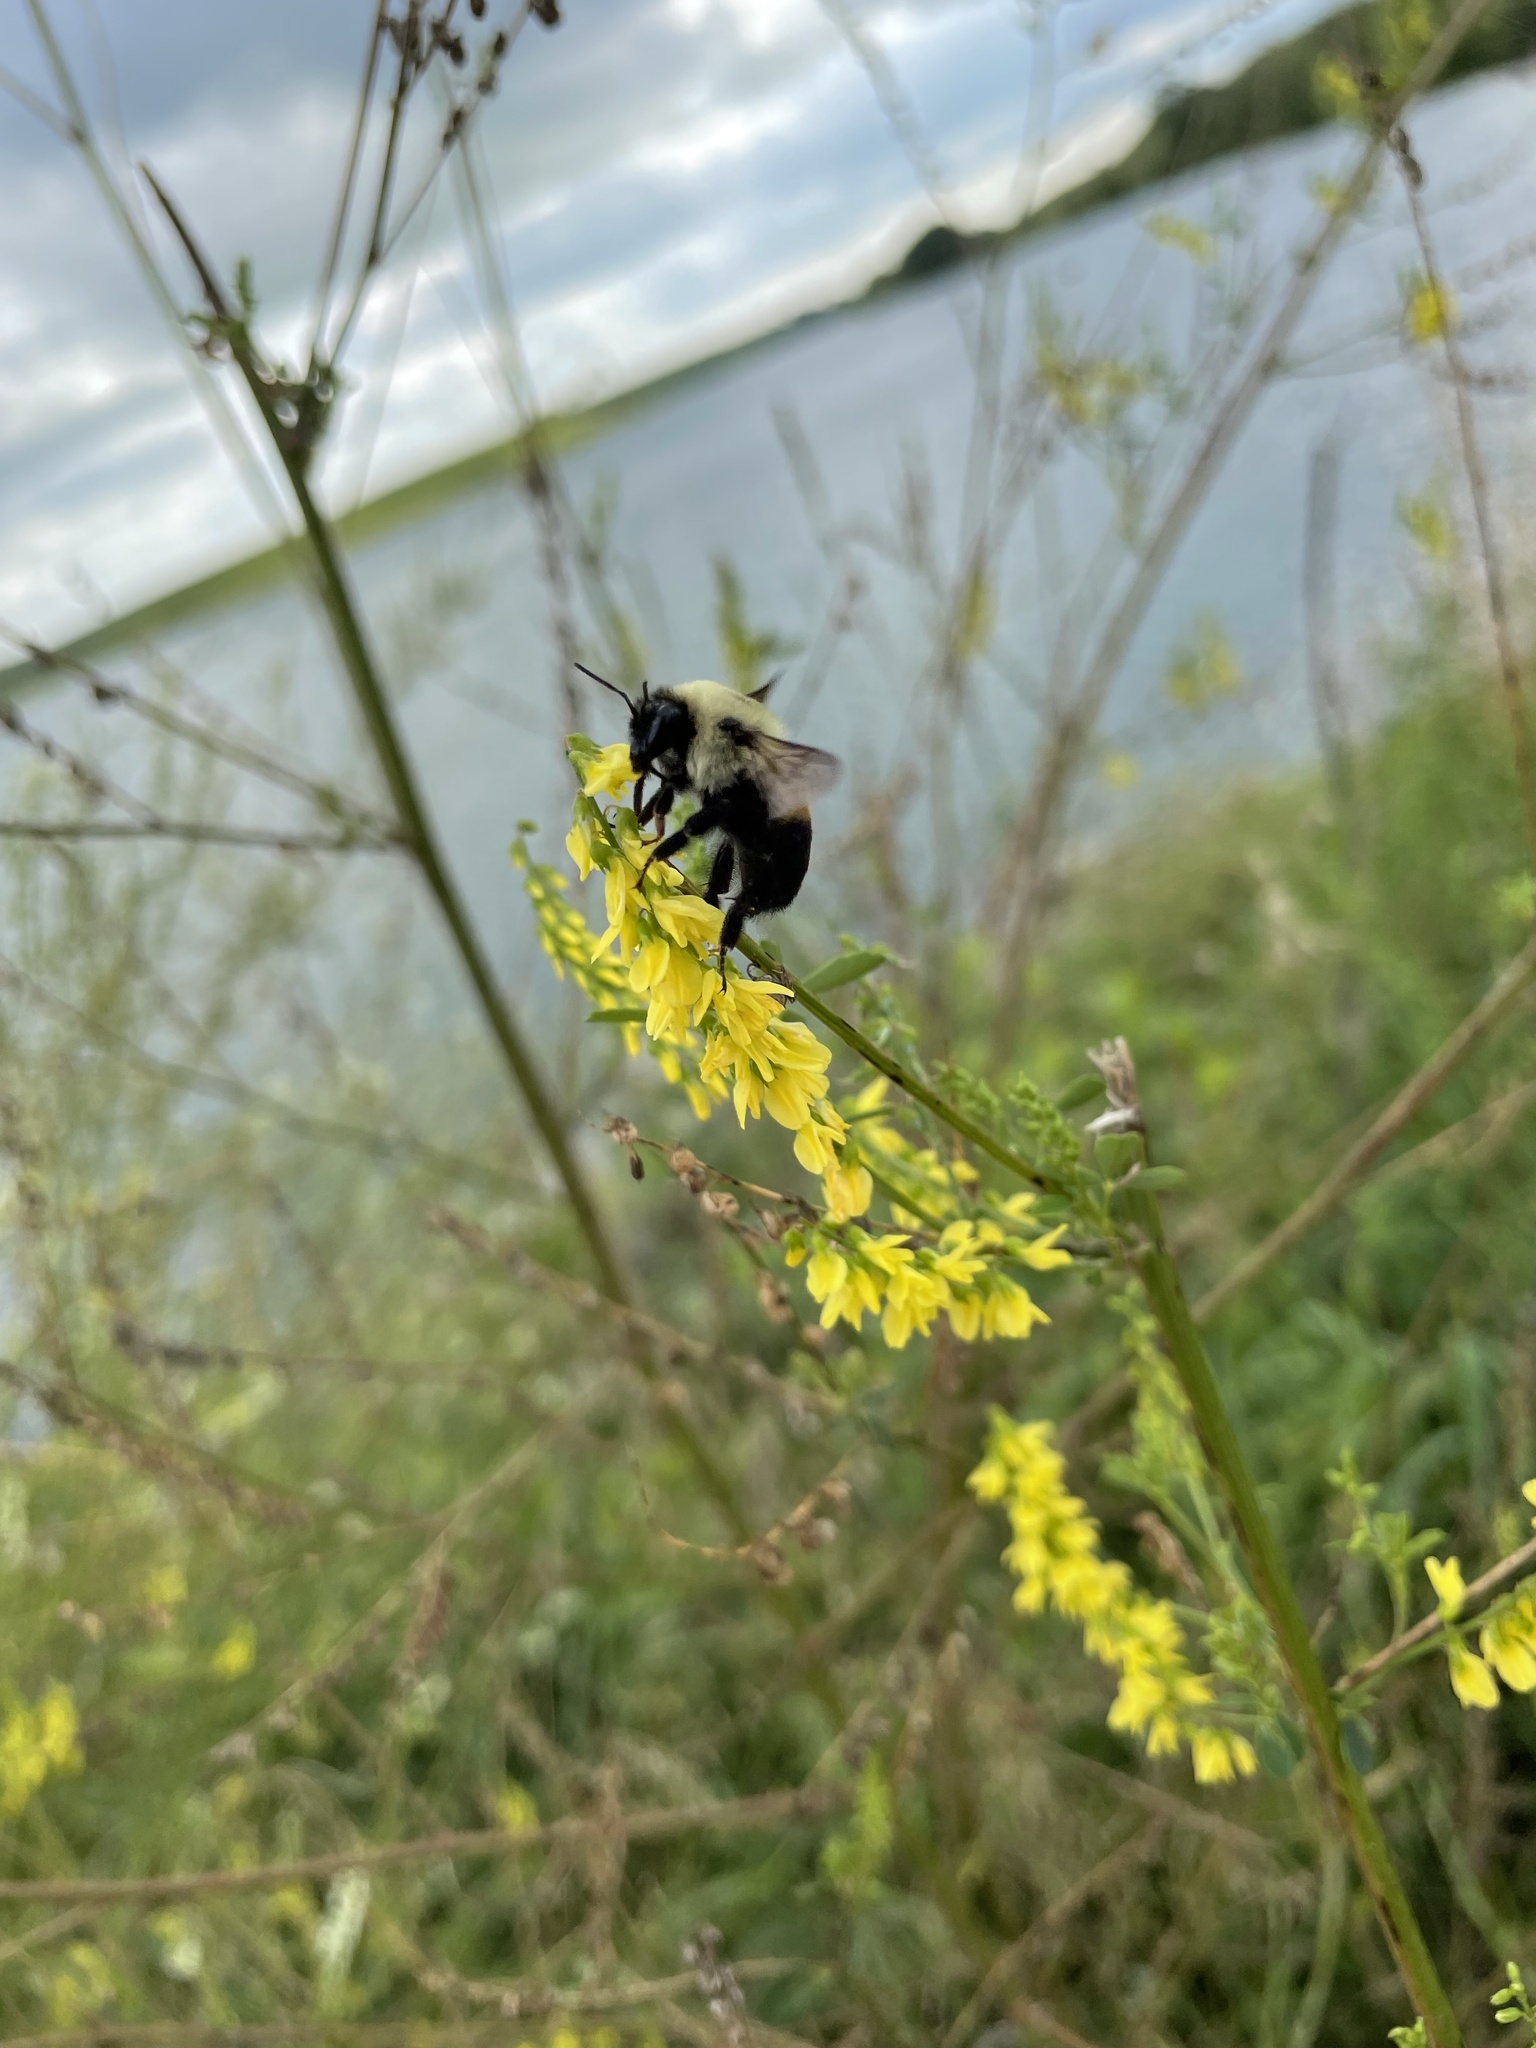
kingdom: Animalia
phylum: Arthropoda
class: Insecta
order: Hymenoptera
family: Apidae
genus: Bombus
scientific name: Bombus griseocollis
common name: Brown-belted bumble bee
